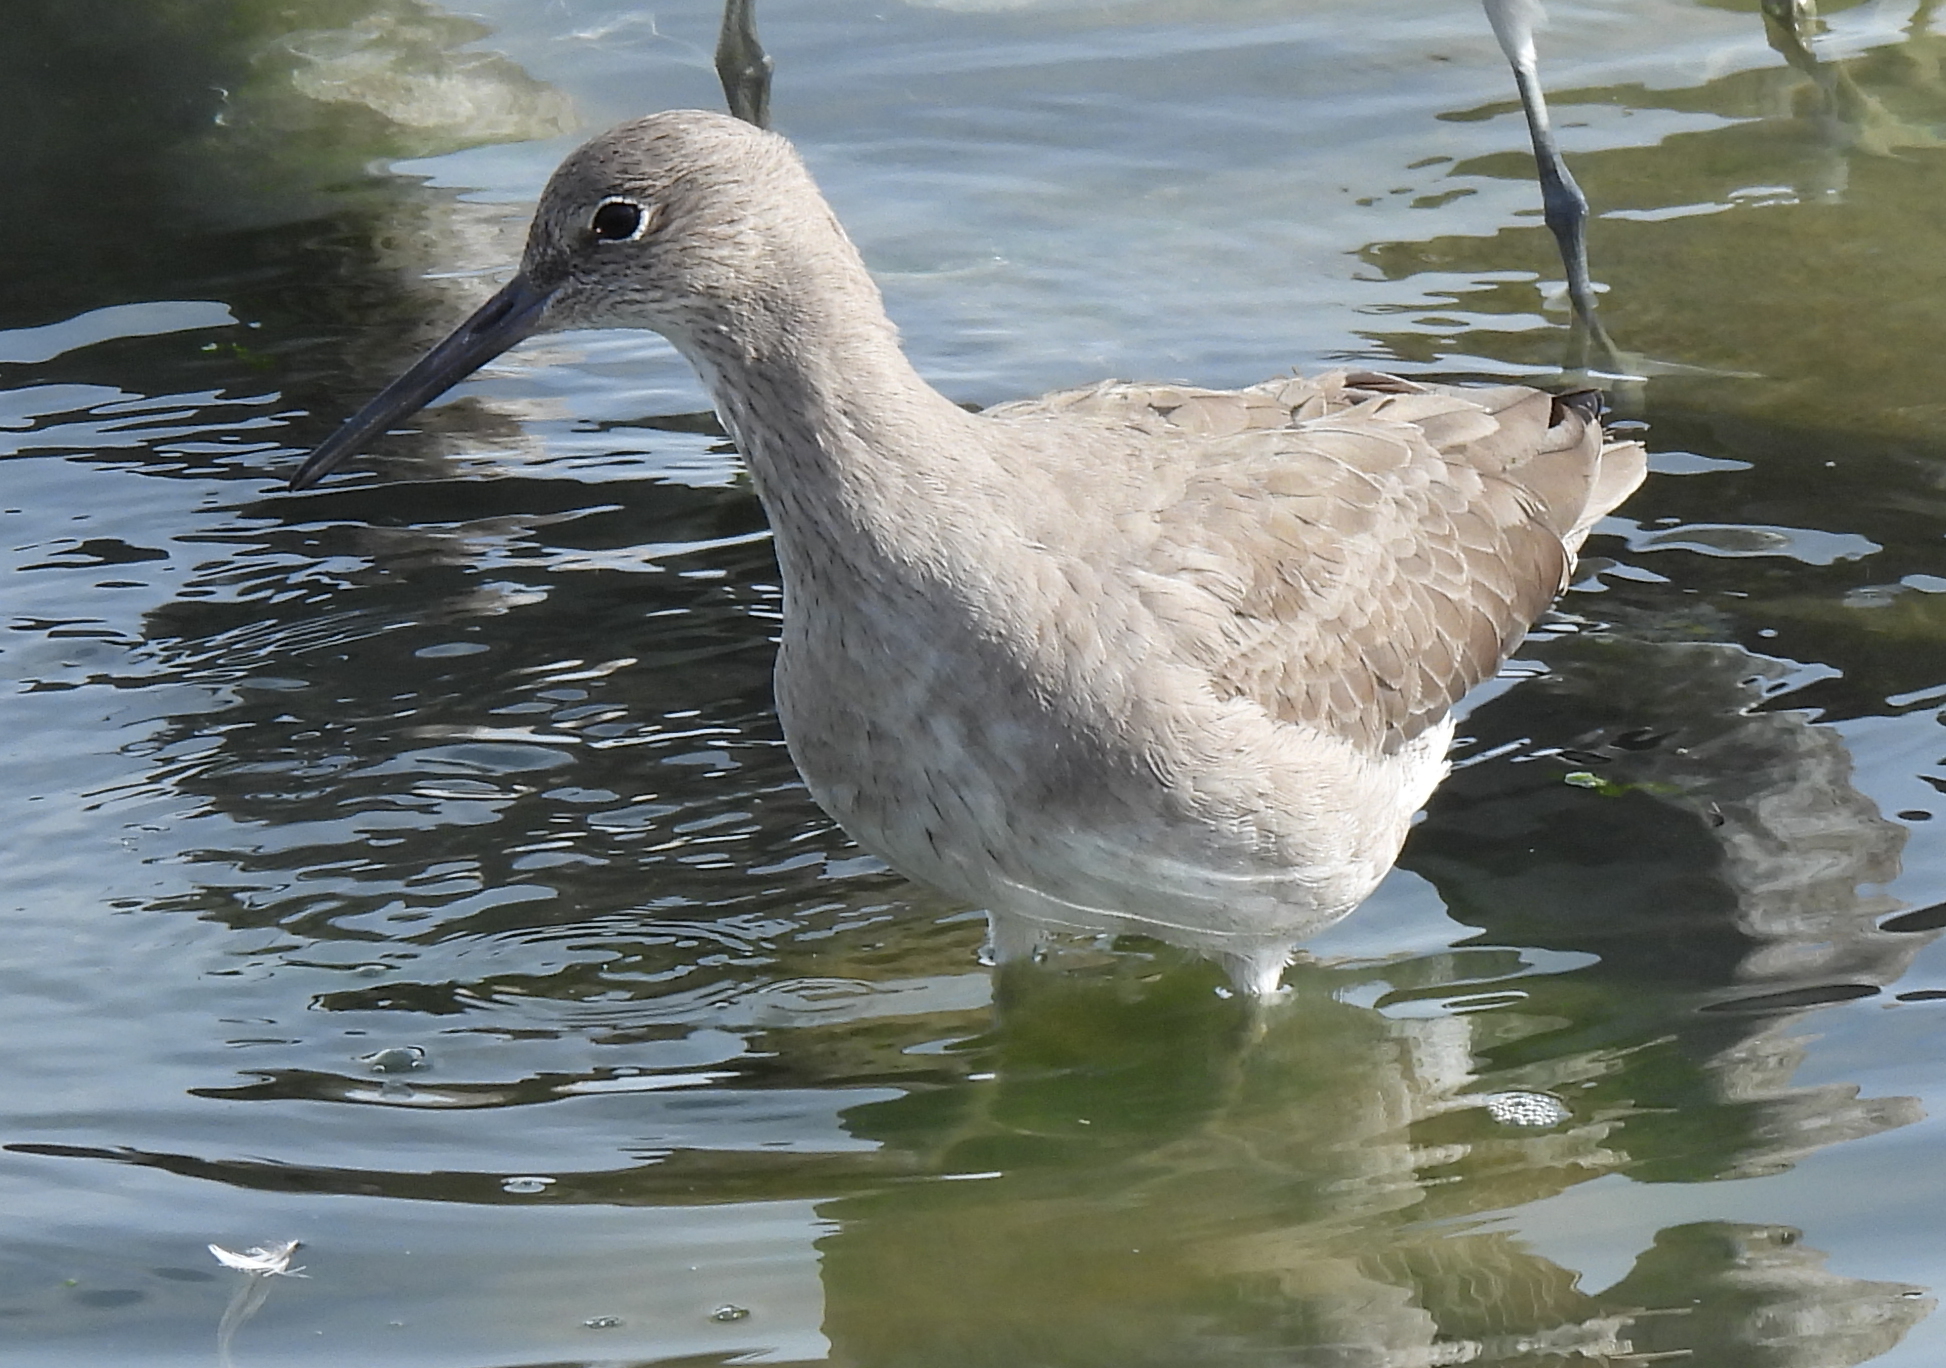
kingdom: Animalia
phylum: Chordata
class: Aves
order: Charadriiformes
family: Scolopacidae
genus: Tringa
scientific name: Tringa semipalmata
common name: Willet
